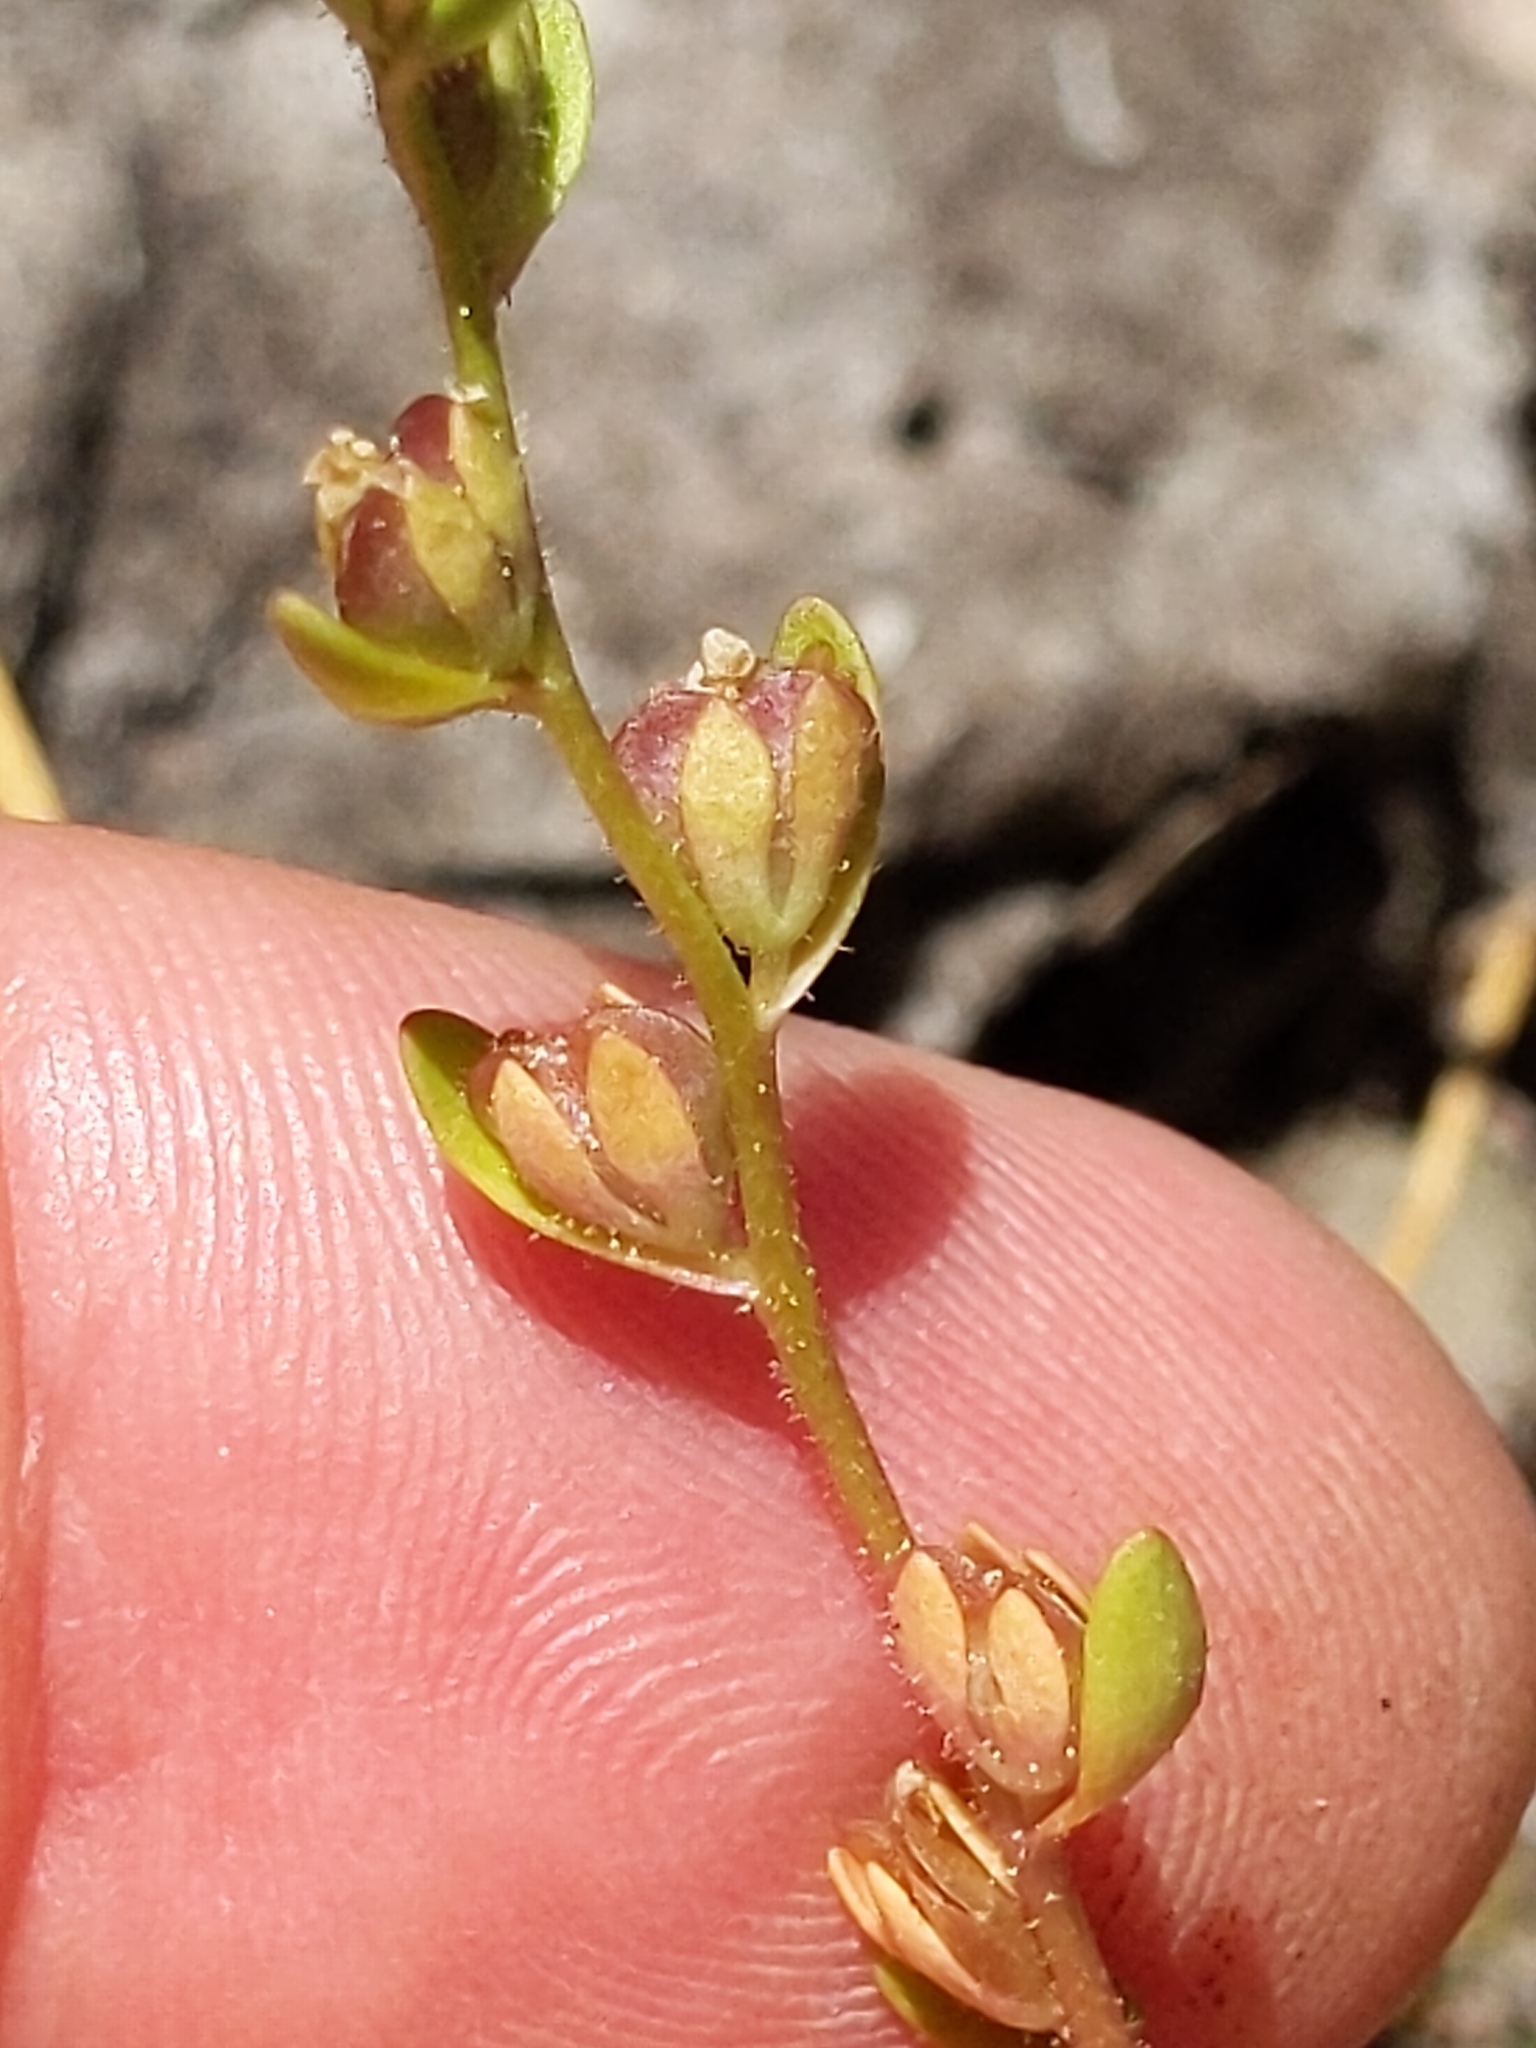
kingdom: Plantae
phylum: Tracheophyta
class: Magnoliopsida
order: Lamiales
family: Plantaginaceae
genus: Veronica
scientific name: Veronica peregrina
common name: Neckweed
